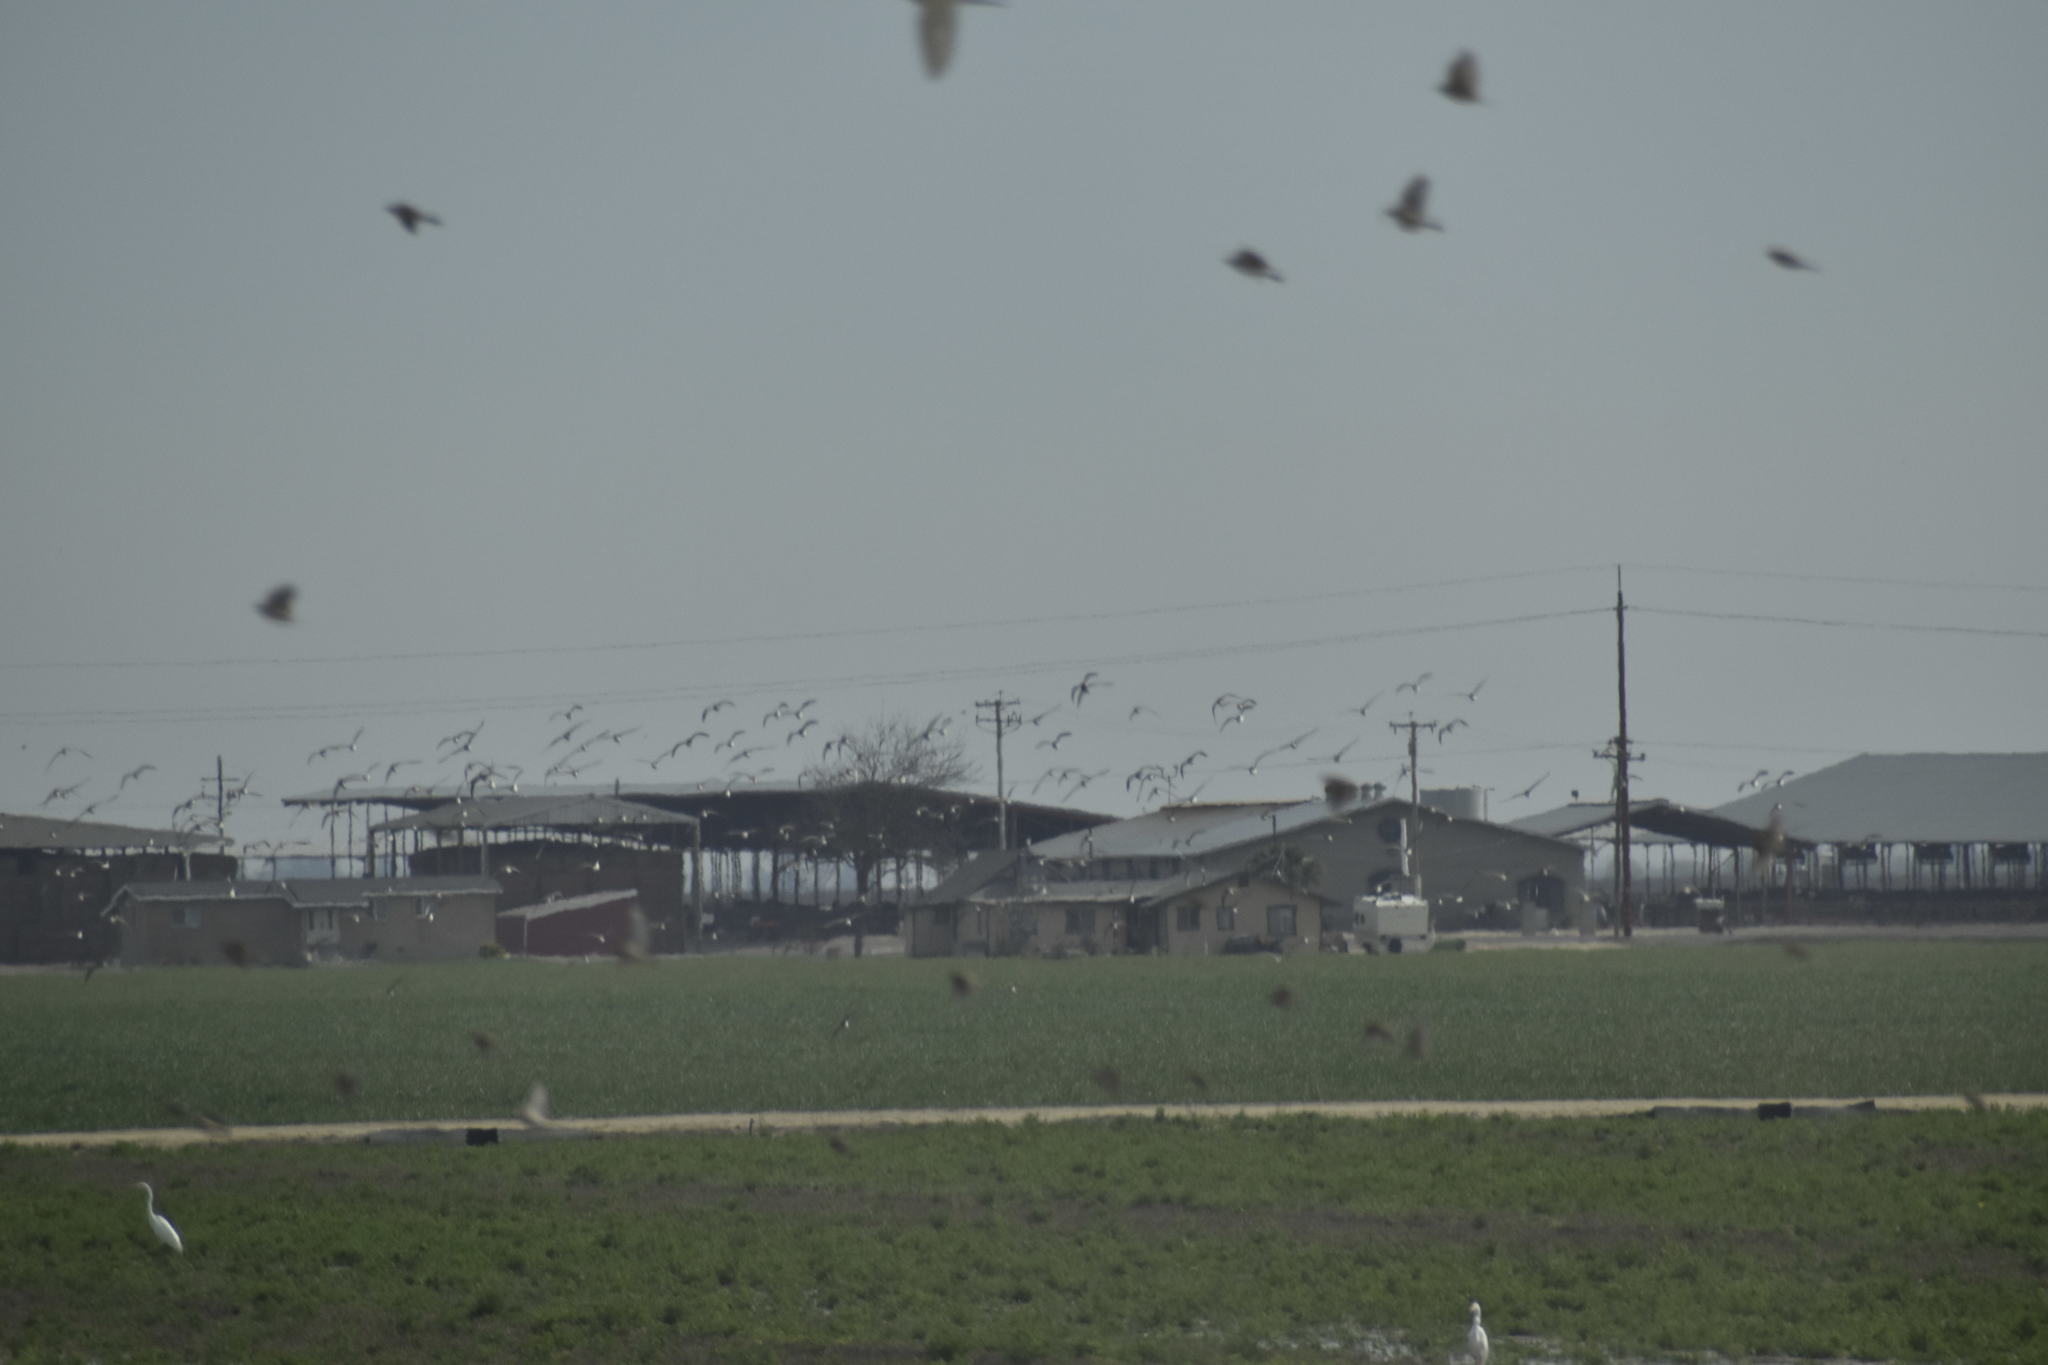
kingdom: Animalia
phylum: Chordata
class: Aves
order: Pelecaniformes
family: Ardeidae
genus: Ardea
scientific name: Ardea alba
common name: Great egret
